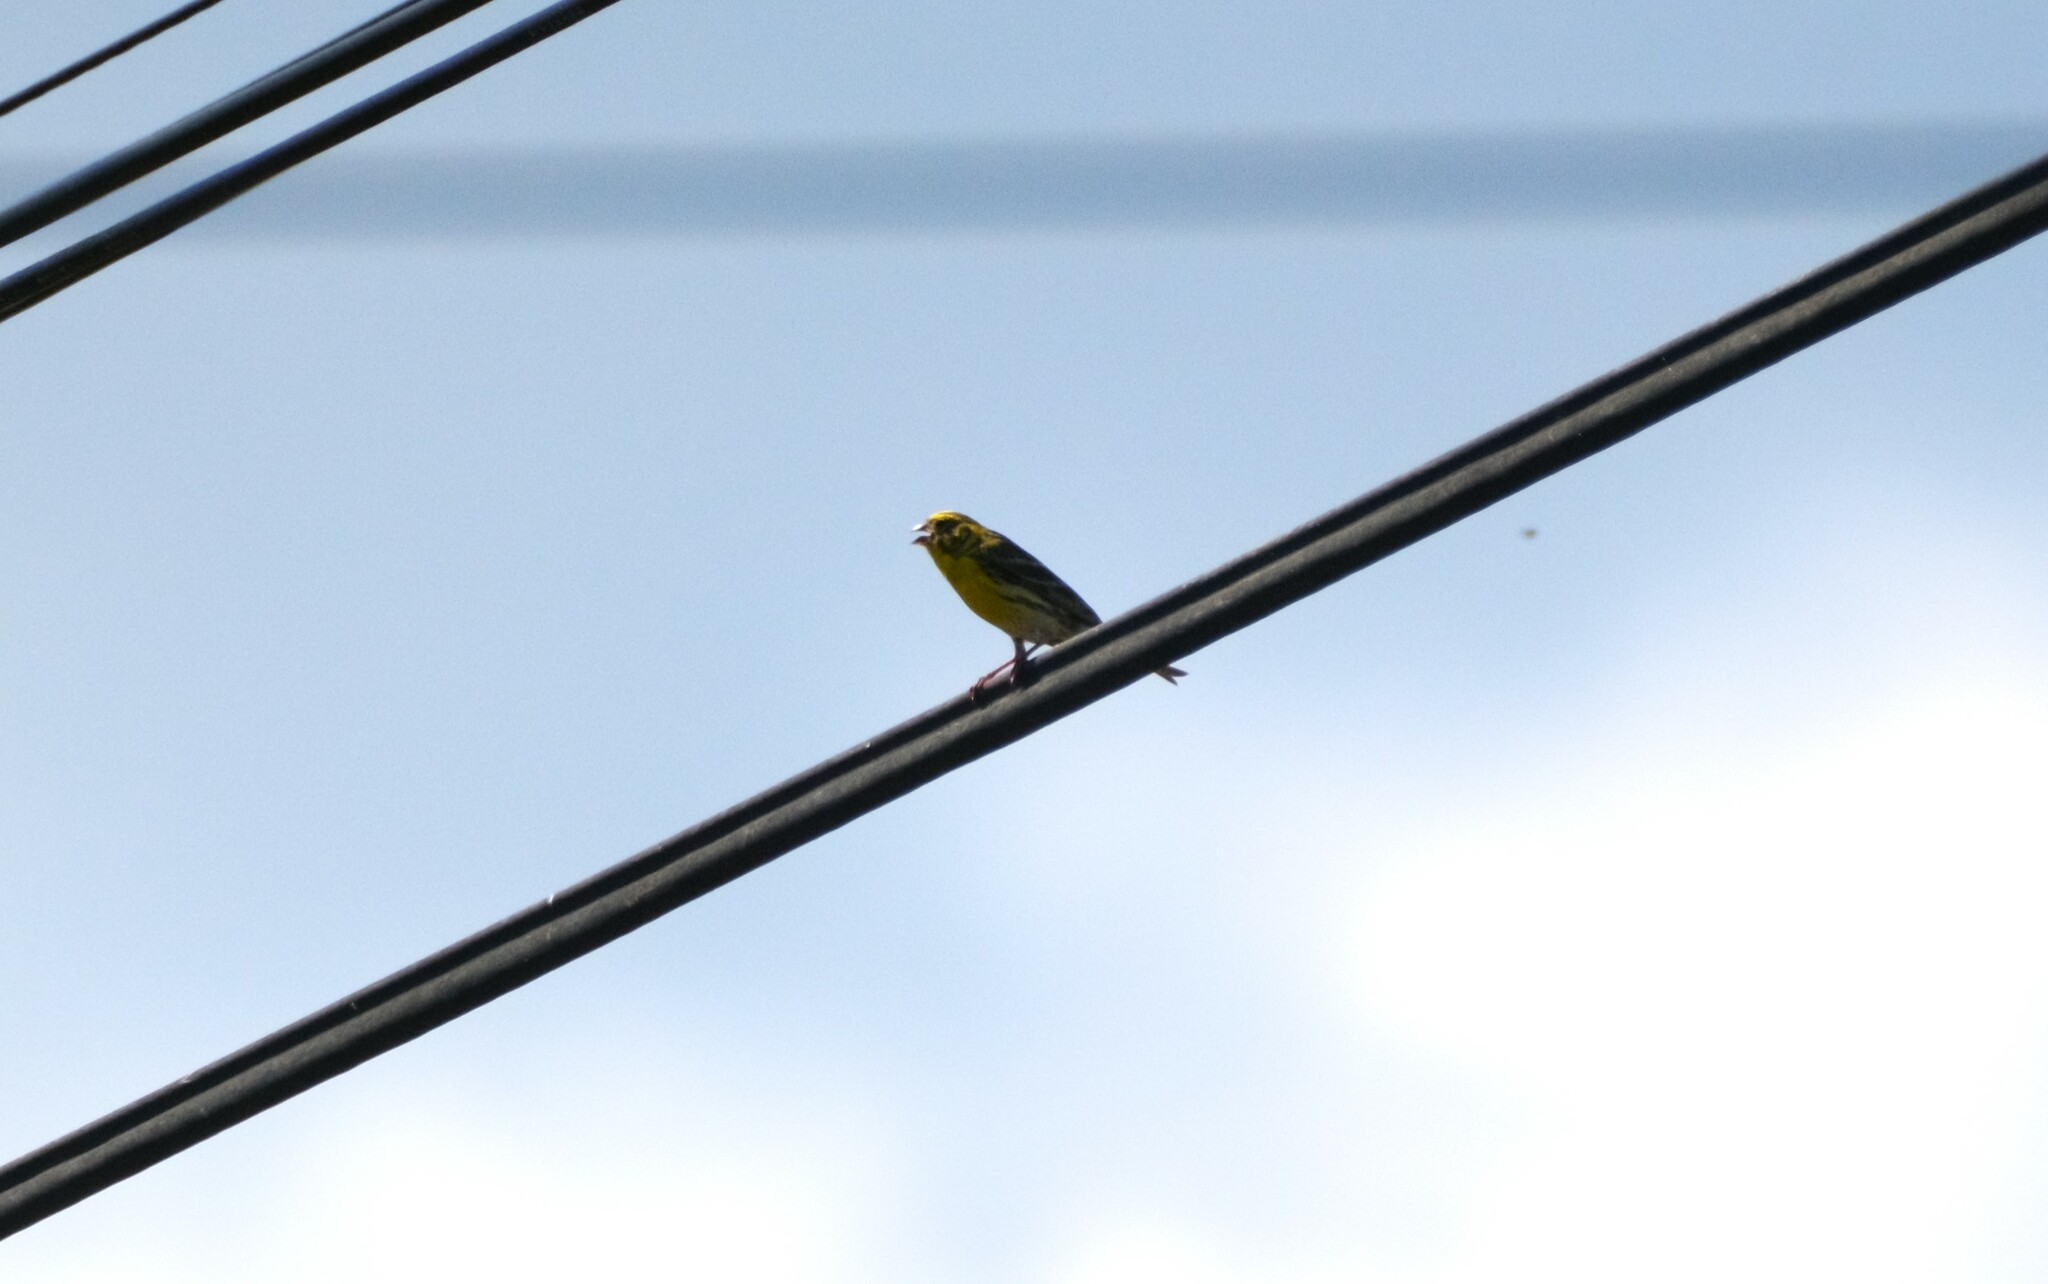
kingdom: Animalia
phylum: Chordata
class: Aves
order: Passeriformes
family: Fringillidae
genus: Serinus
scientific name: Serinus serinus
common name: European serin
